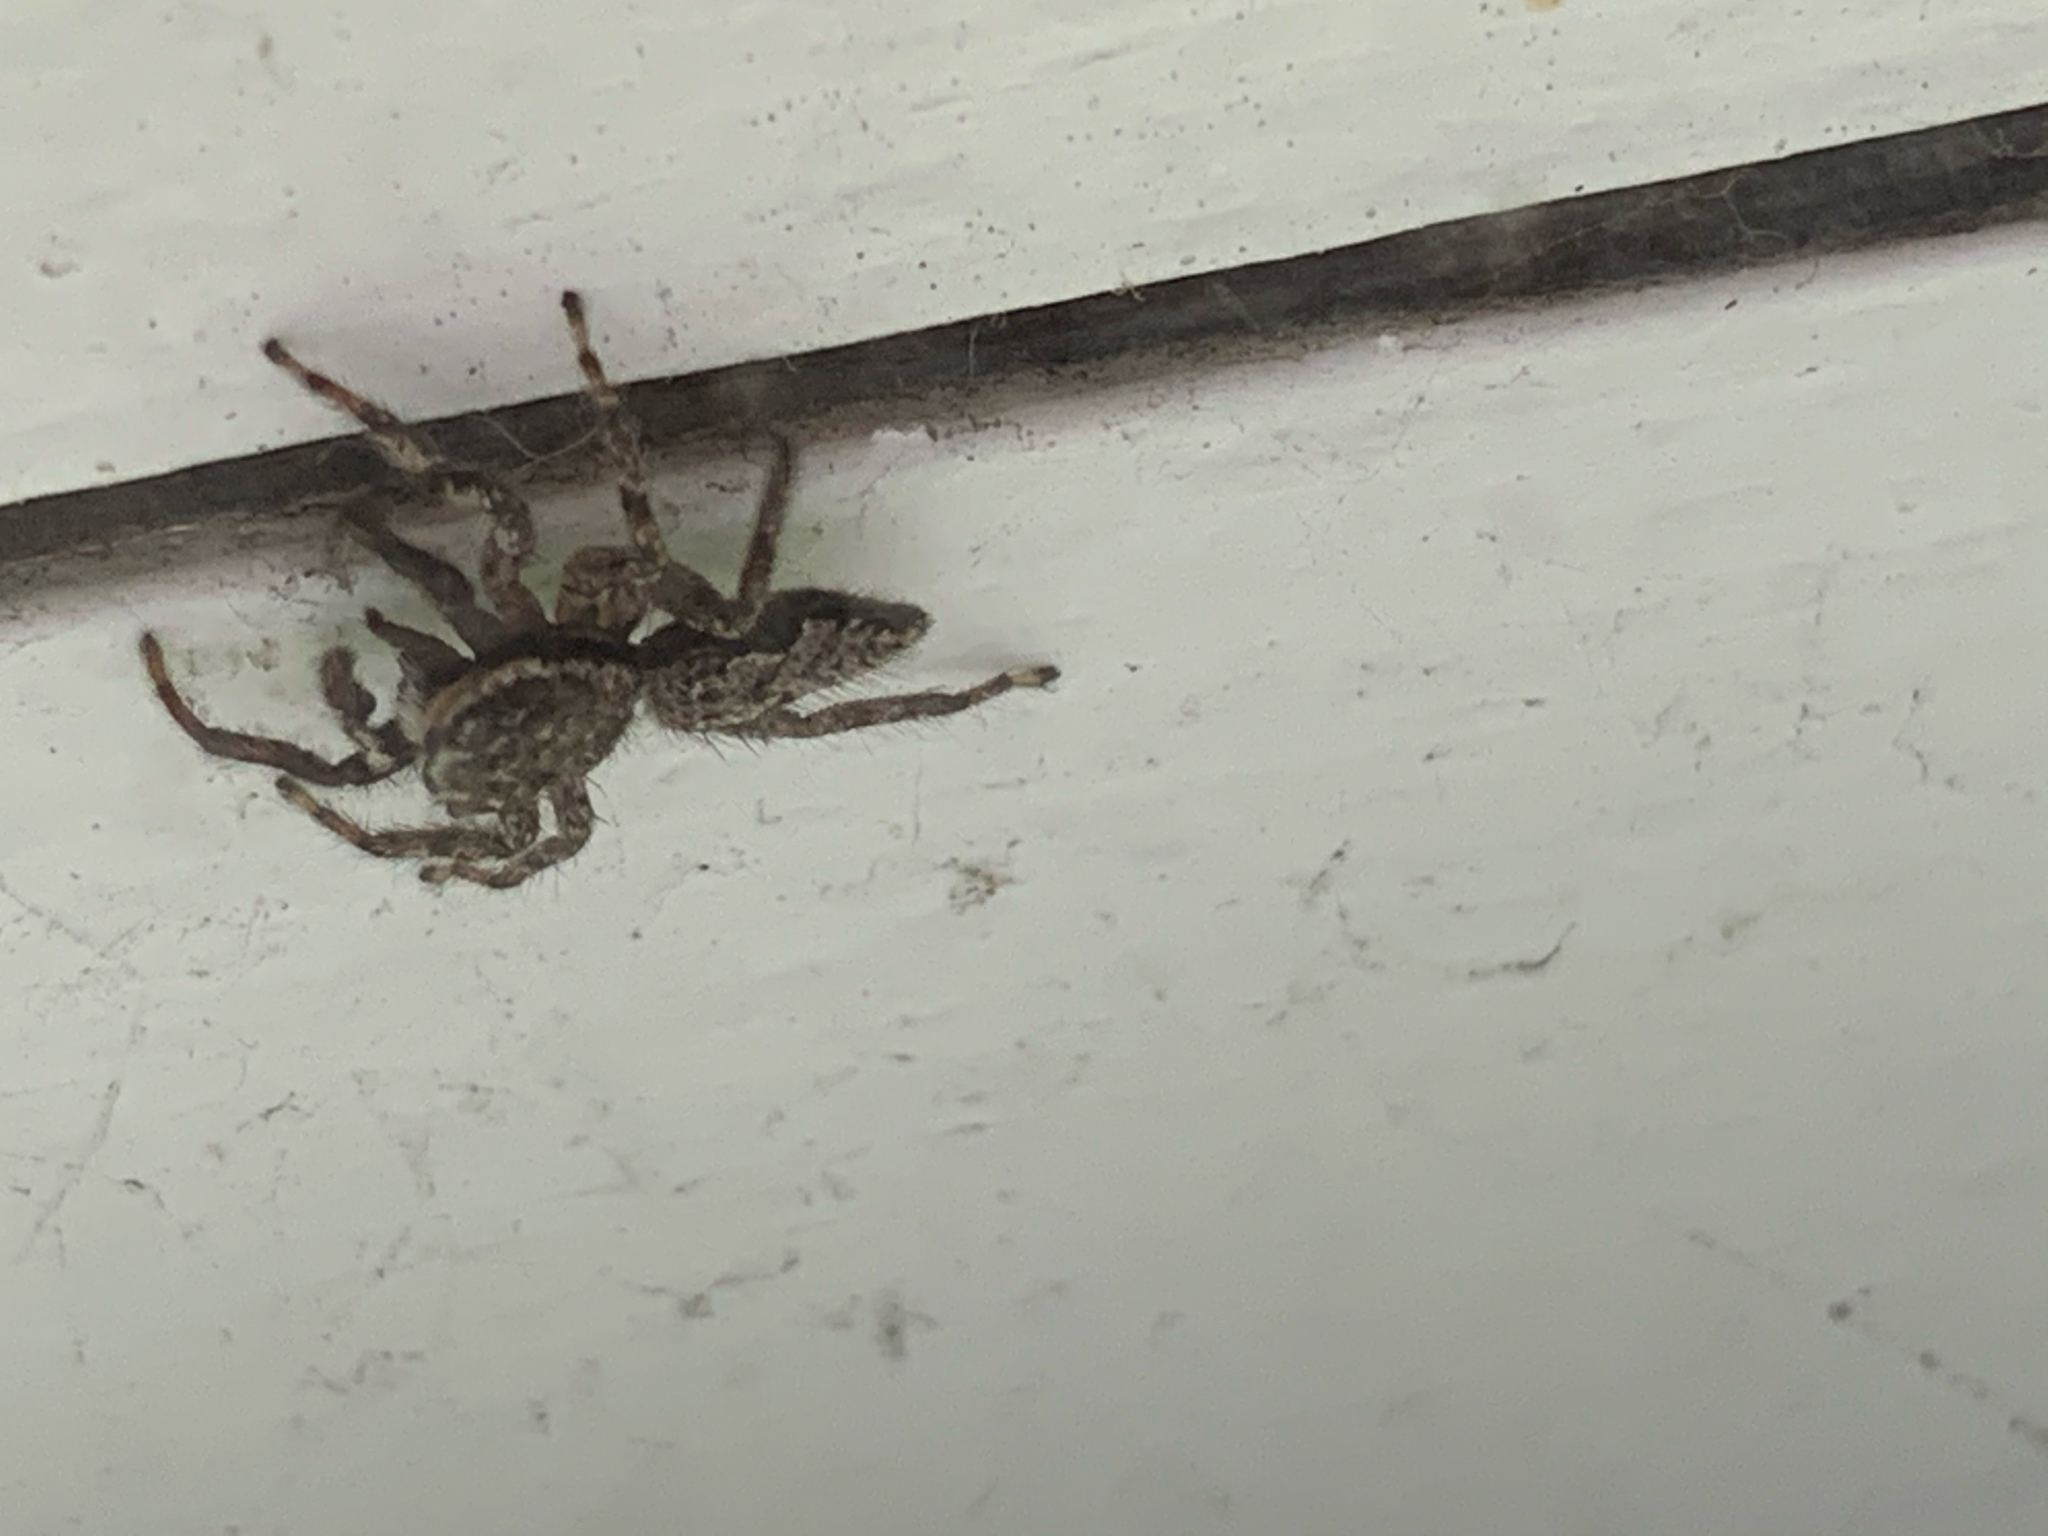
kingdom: Animalia
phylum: Arthropoda
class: Arachnida
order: Araneae
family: Salticidae
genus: Platycryptus
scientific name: Platycryptus undatus
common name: Tan jumping spider
